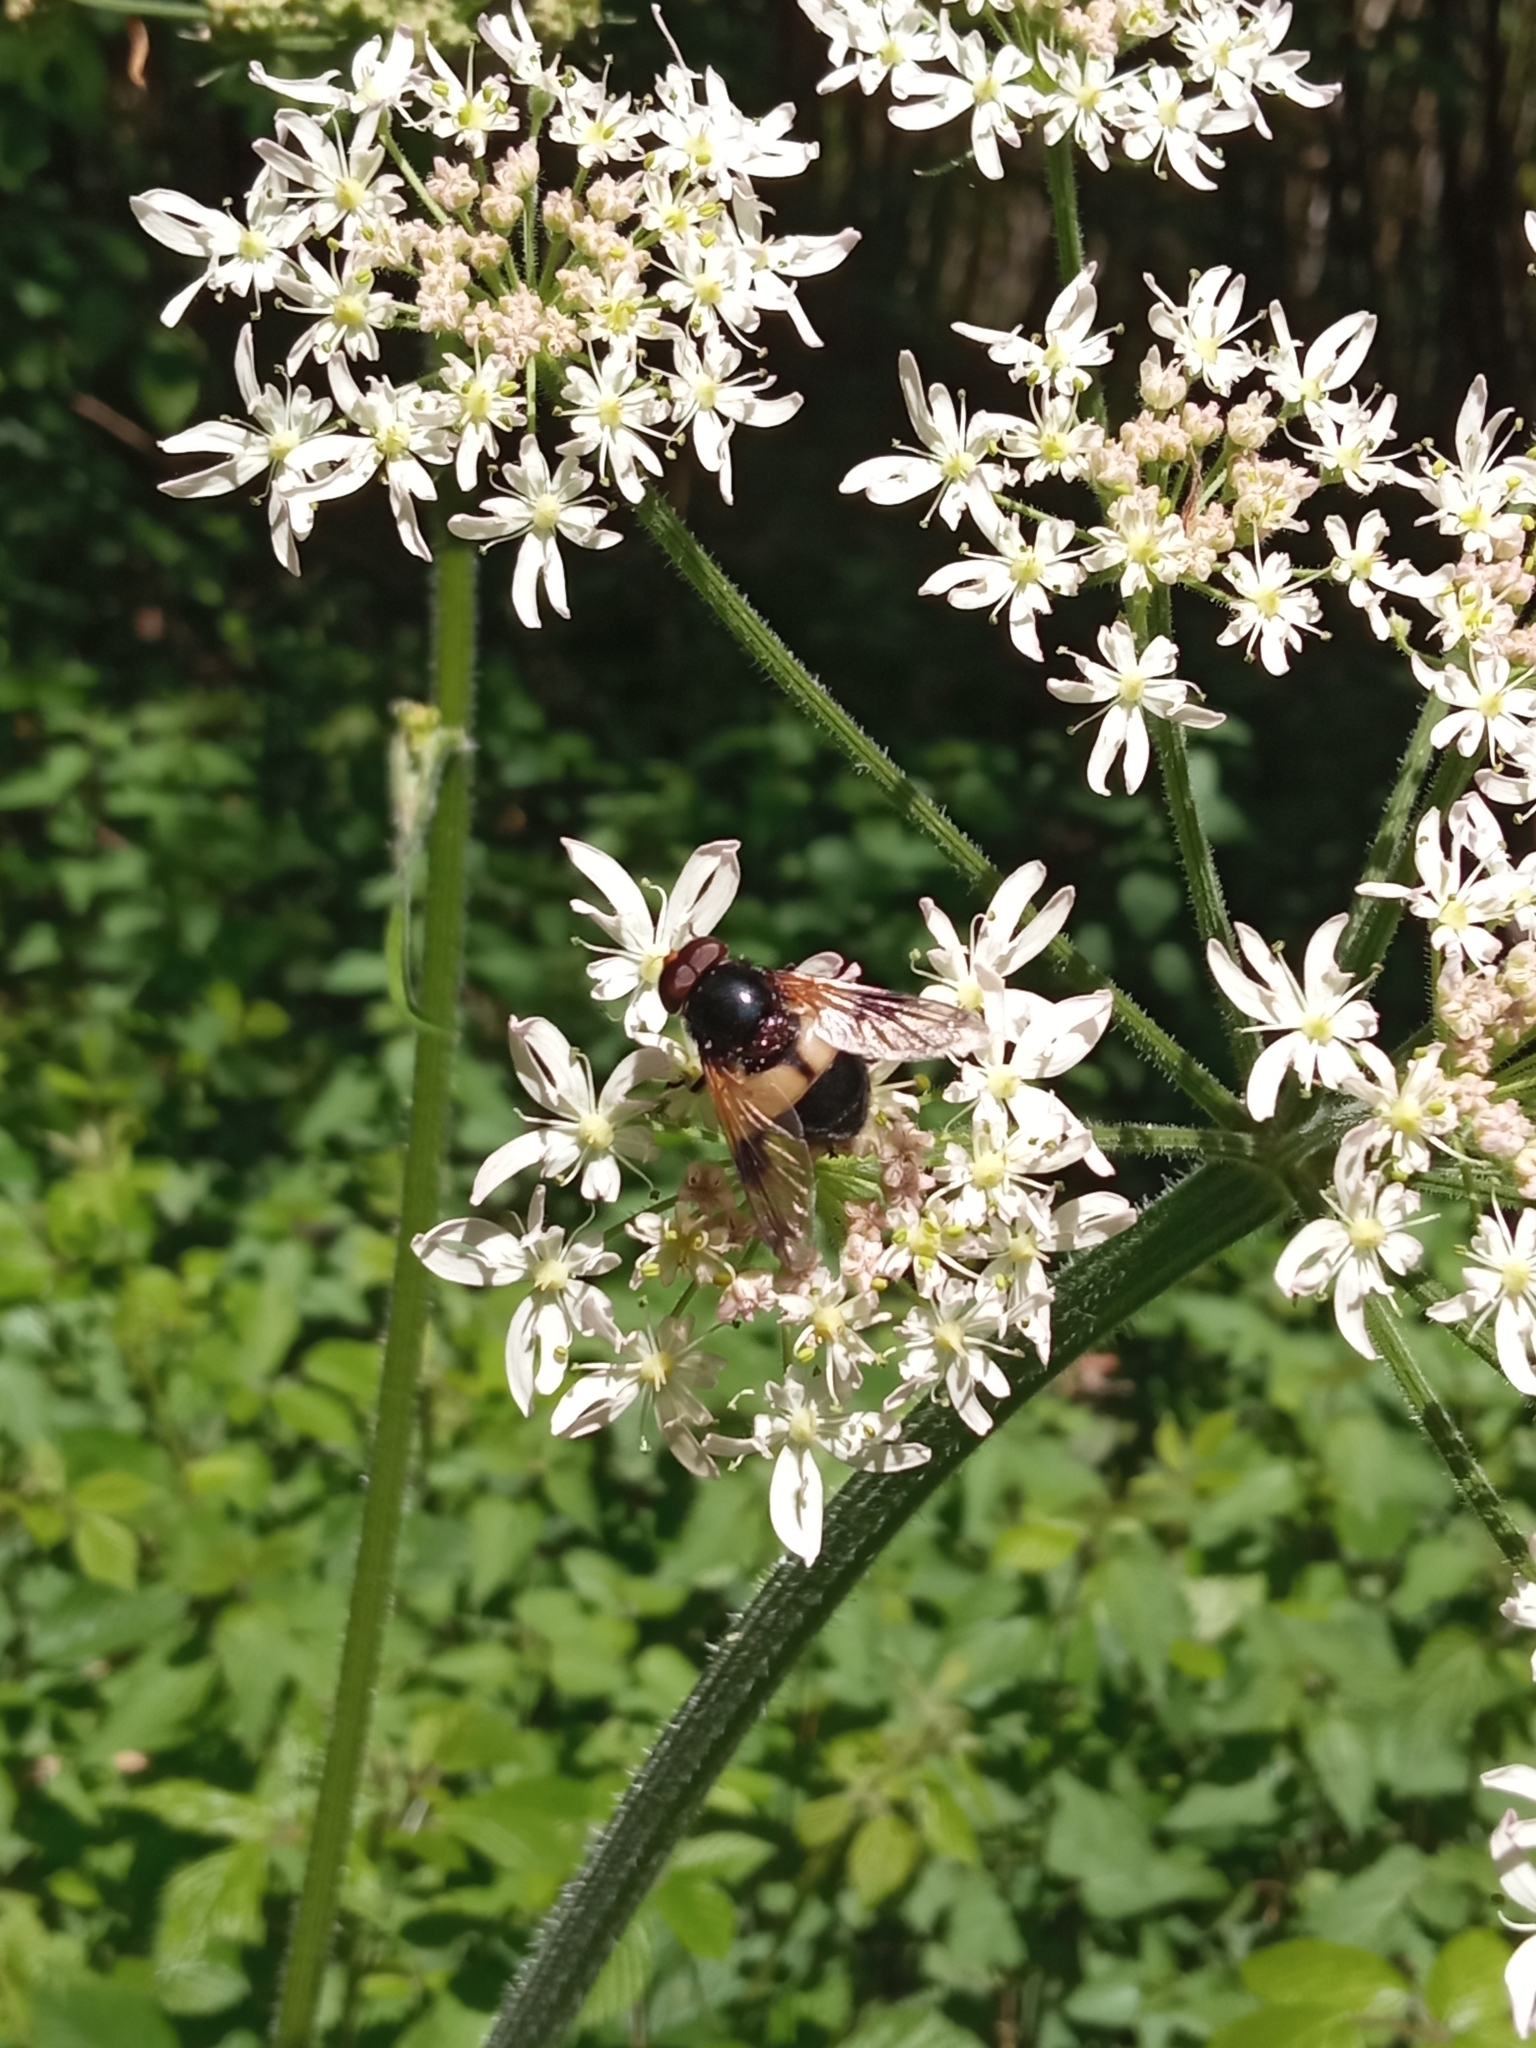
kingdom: Animalia
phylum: Arthropoda
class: Insecta
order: Diptera
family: Syrphidae
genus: Volucella
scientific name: Volucella pellucens
